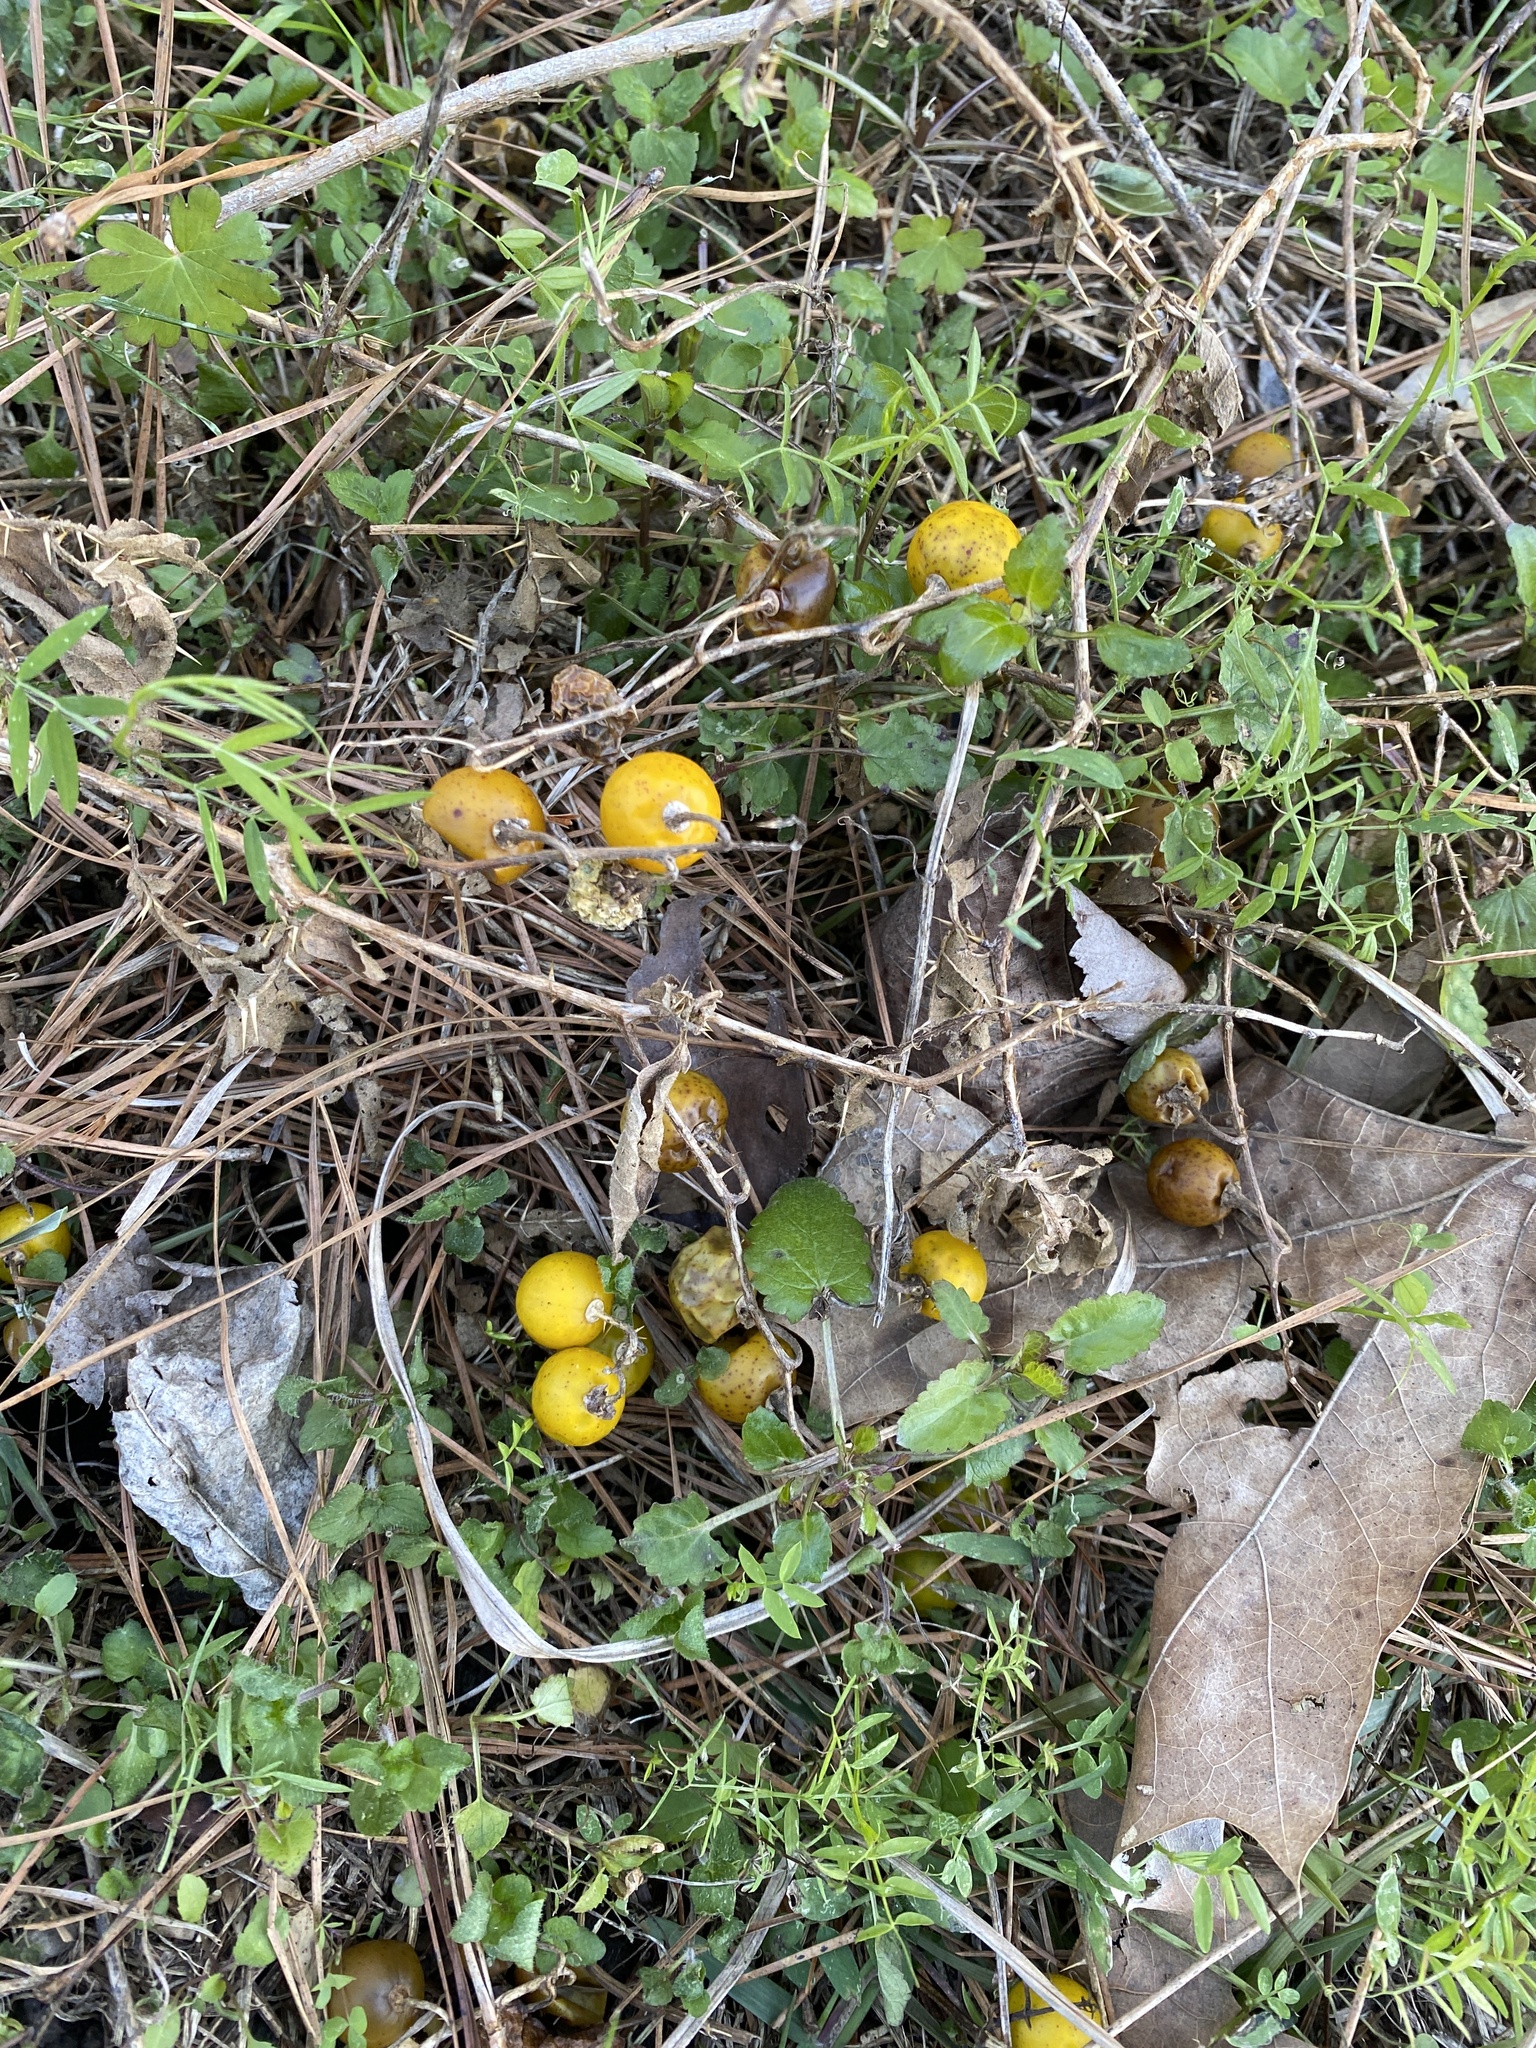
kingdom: Plantae
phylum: Tracheophyta
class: Magnoliopsida
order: Solanales
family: Solanaceae
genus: Solanum
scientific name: Solanum carolinense
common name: Horse-nettle
